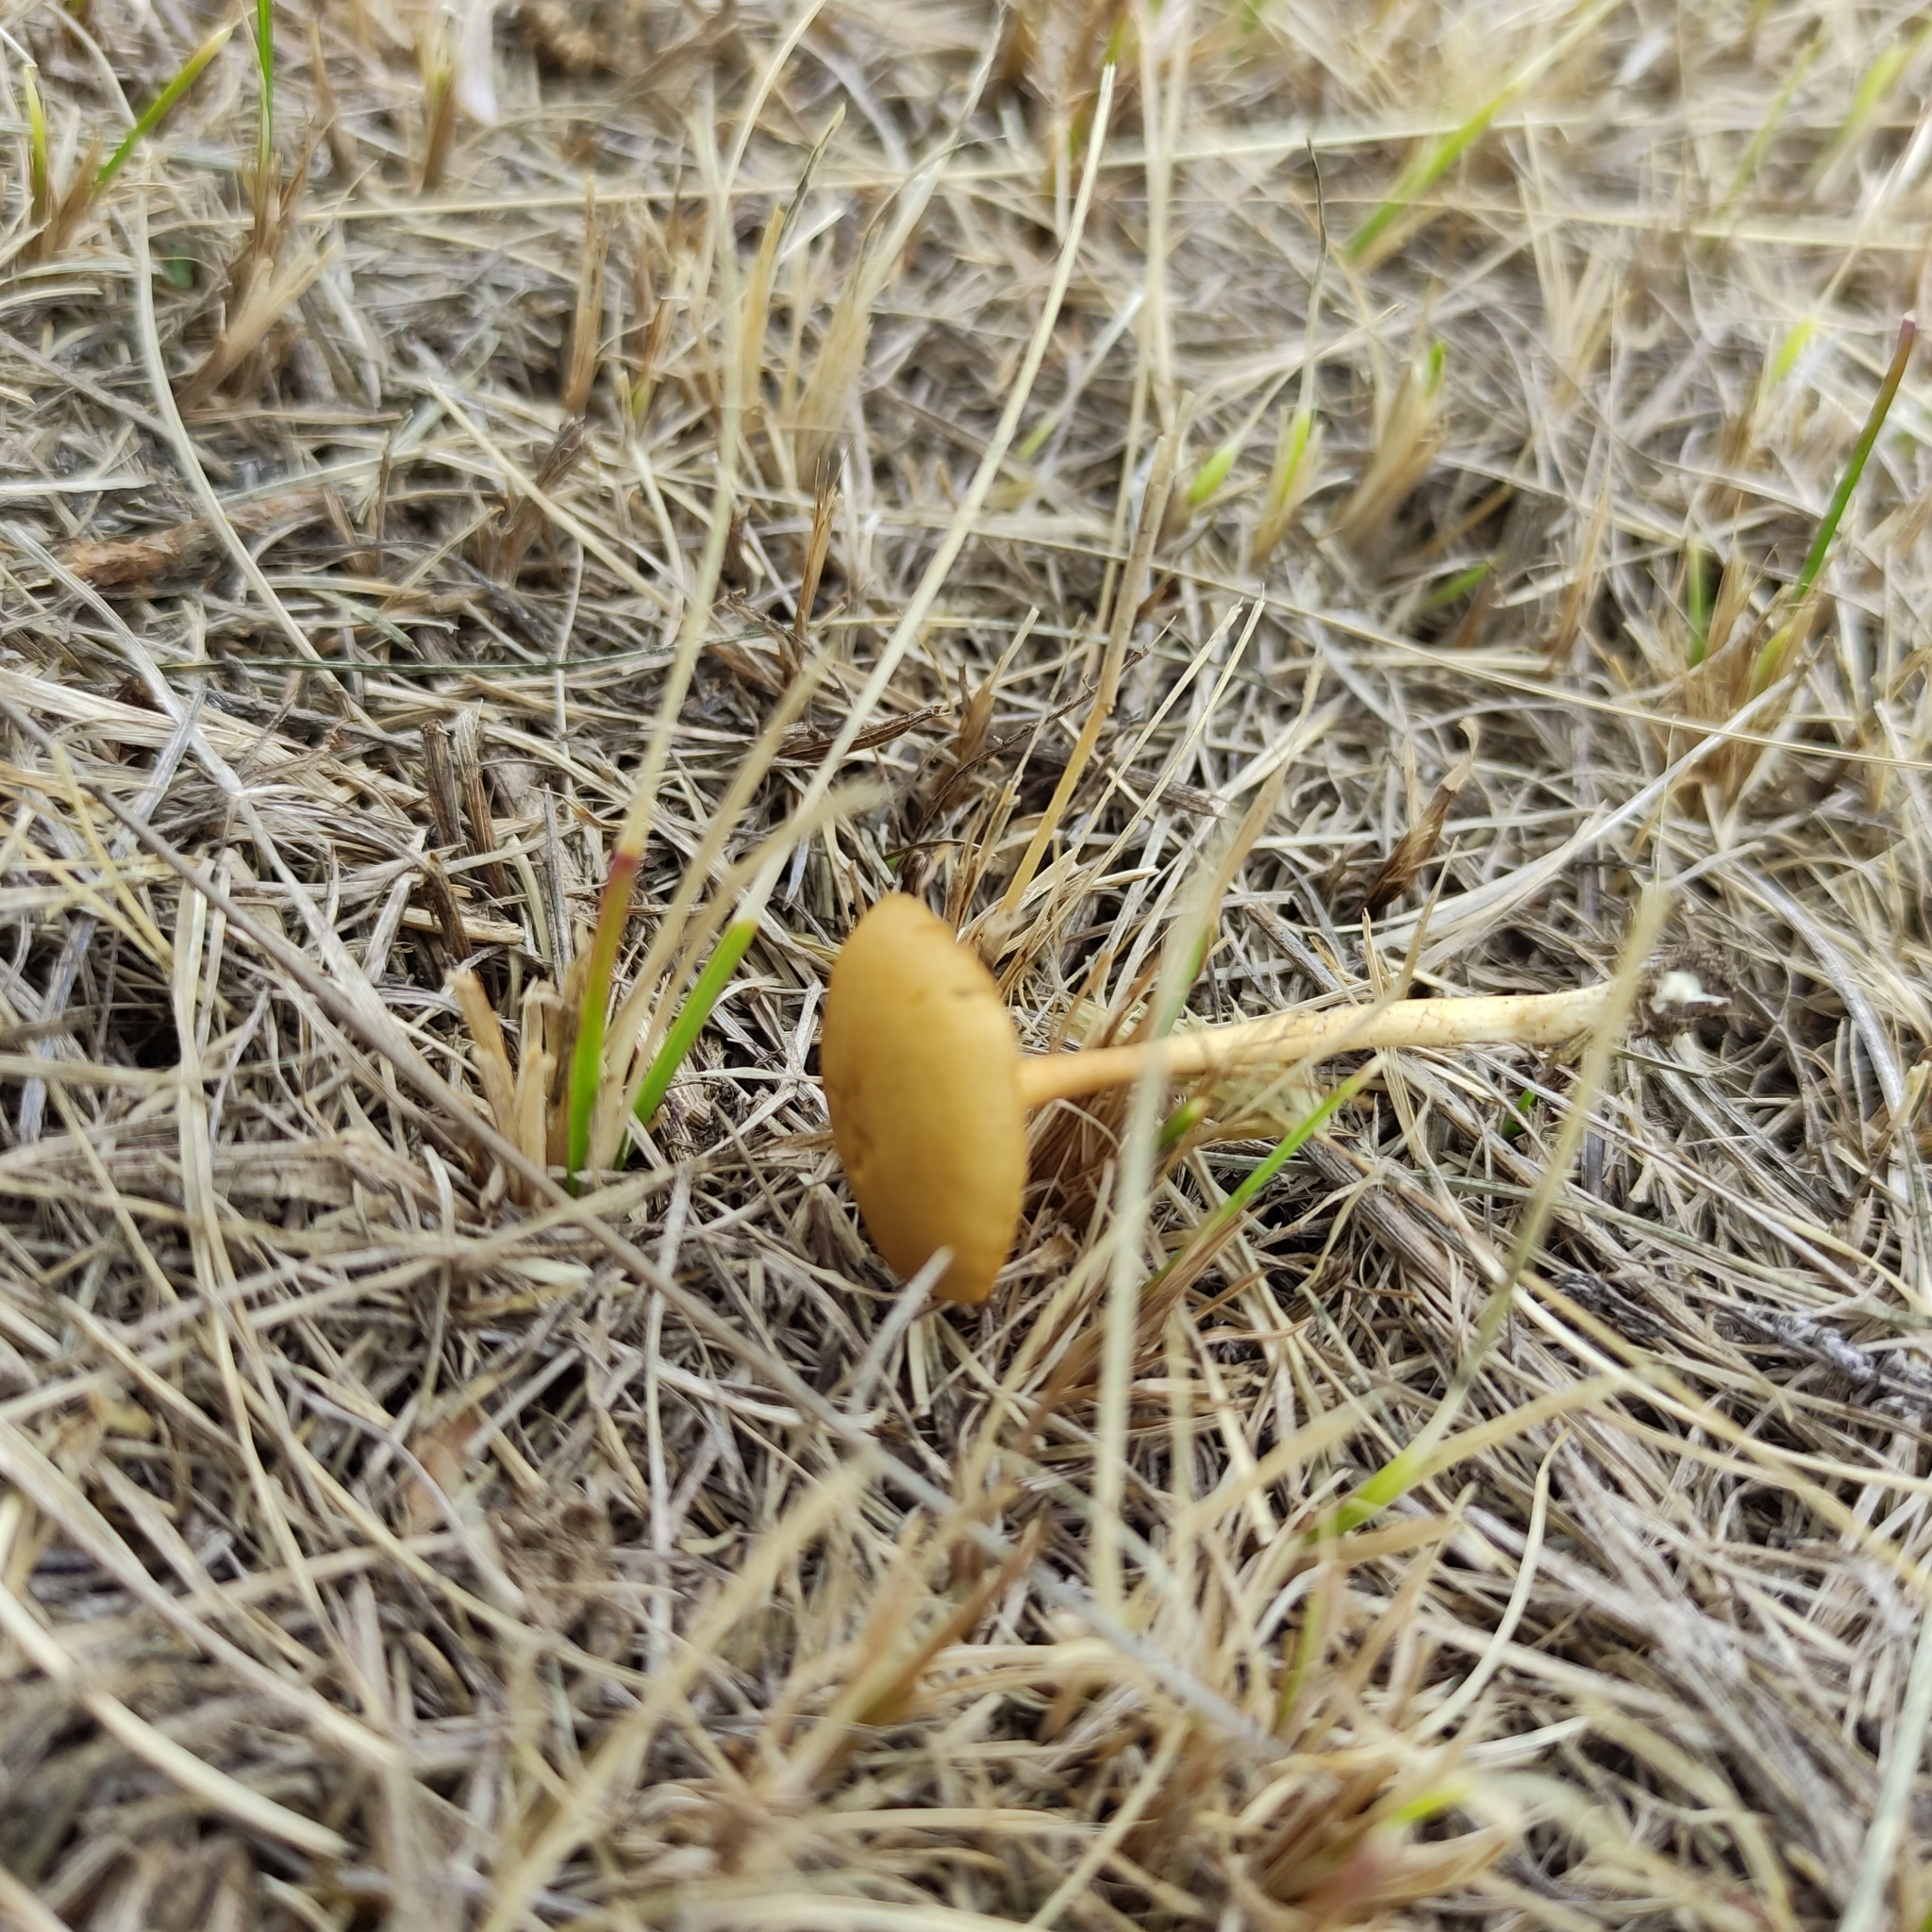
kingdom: Fungi
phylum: Basidiomycota
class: Agaricomycetes
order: Agaricales
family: Strophariaceae
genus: Agrocybe
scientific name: Agrocybe pediades
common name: Common fieldcap
